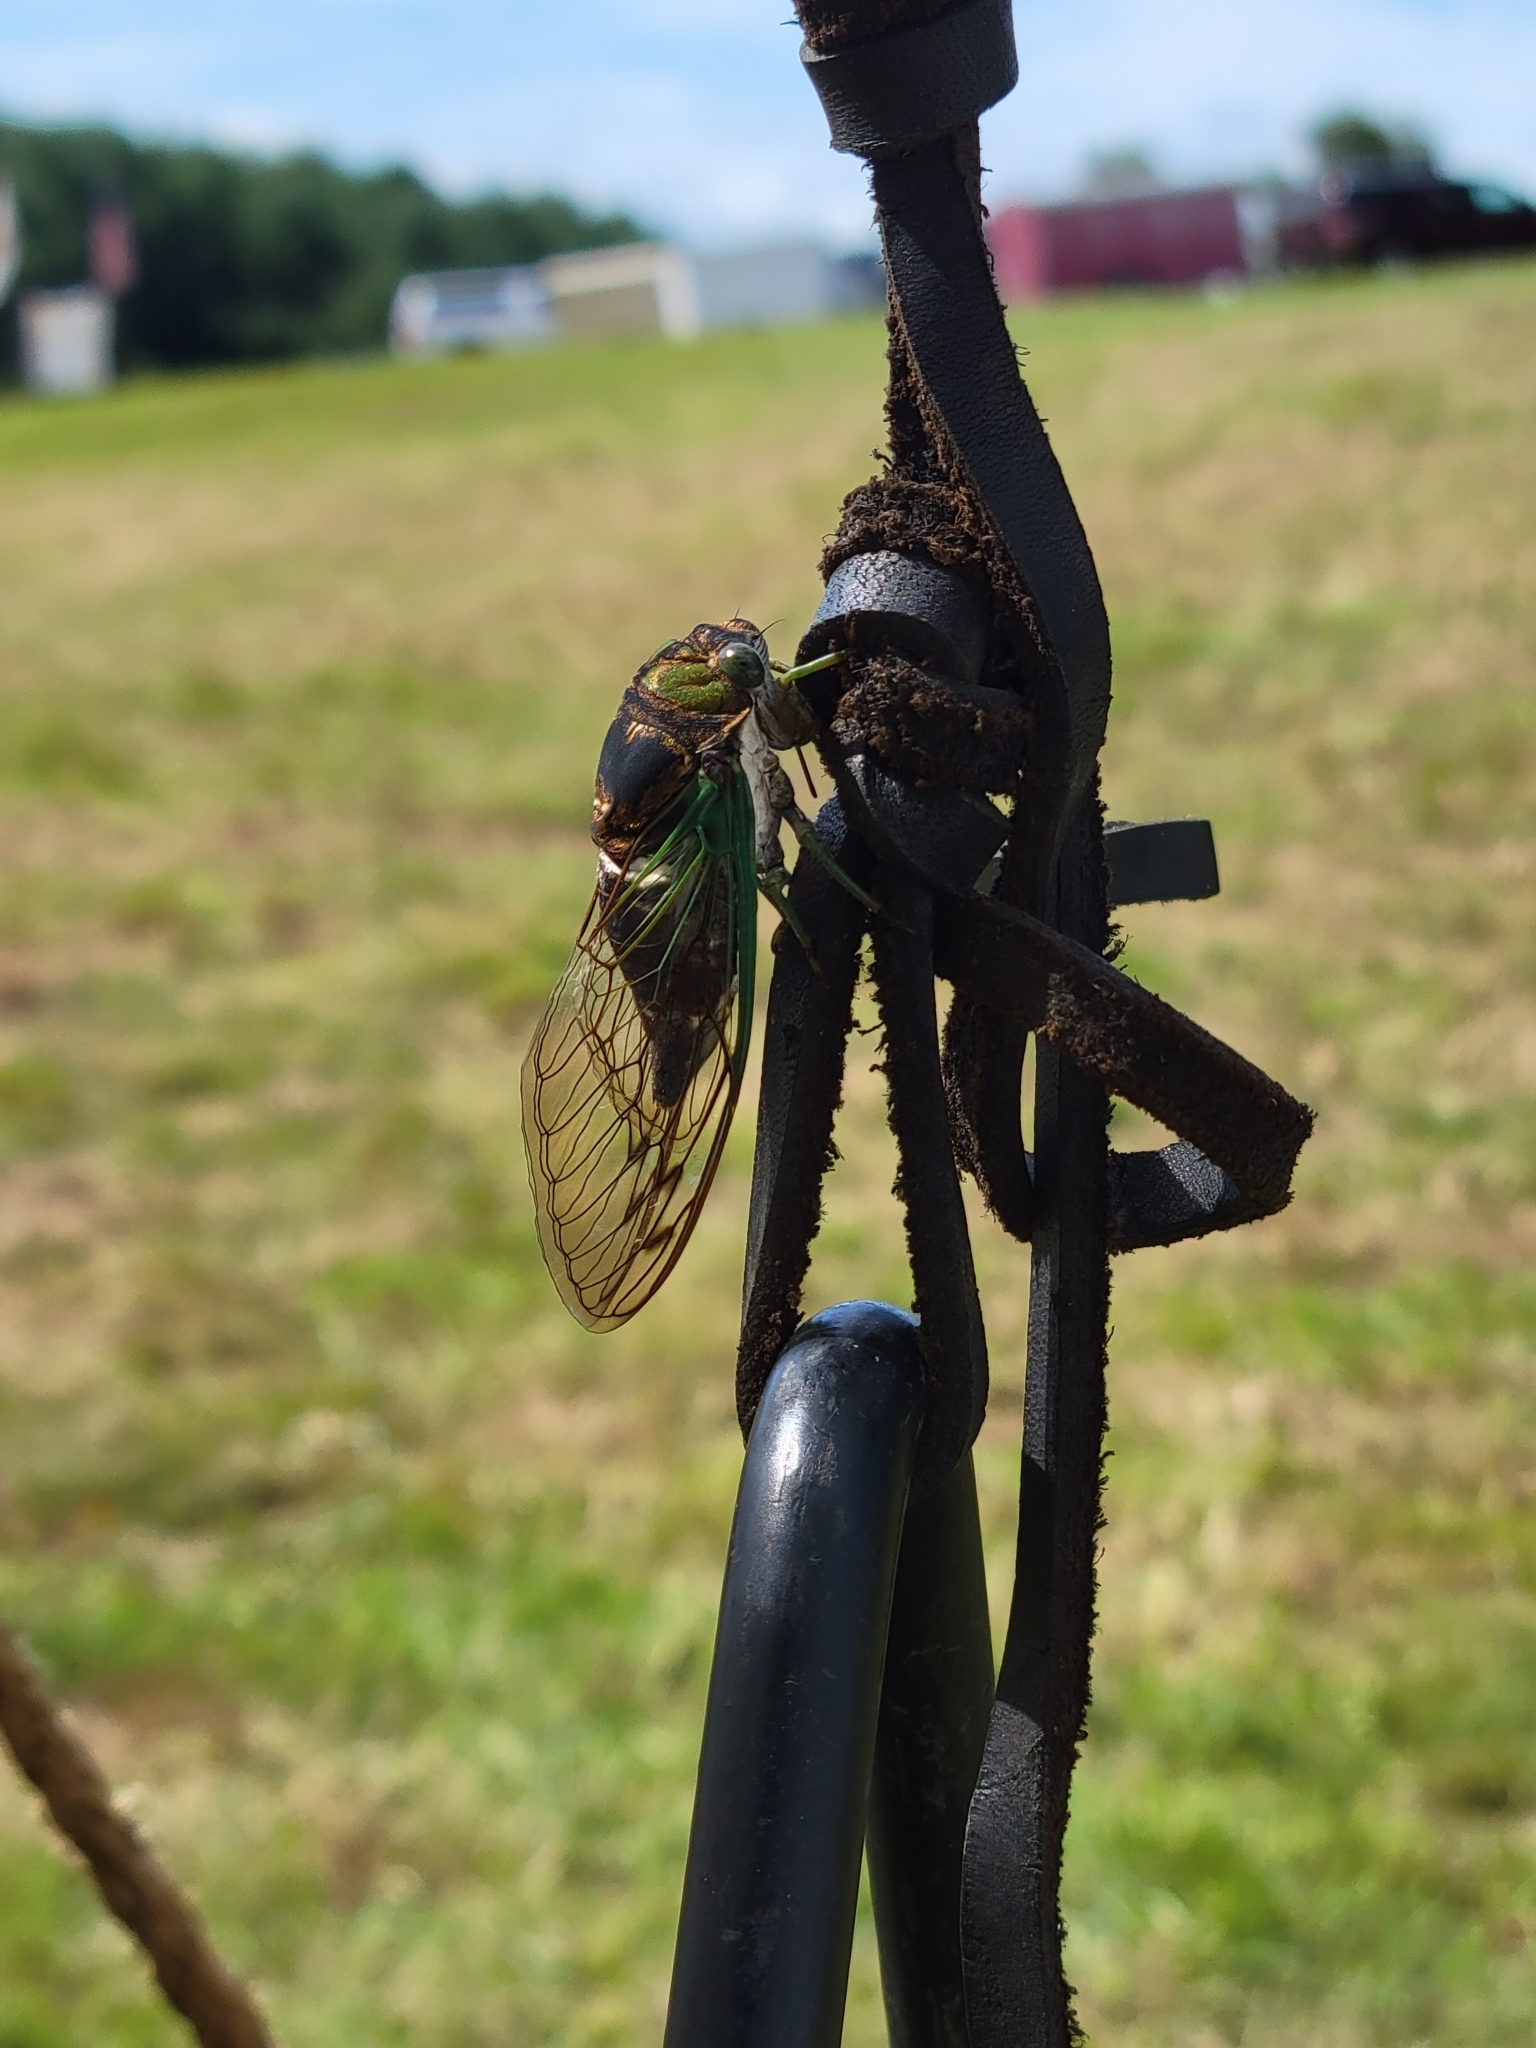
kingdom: Animalia
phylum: Arthropoda
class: Insecta
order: Hemiptera
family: Cicadidae
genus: Neotibicen
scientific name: Neotibicen tibicen
